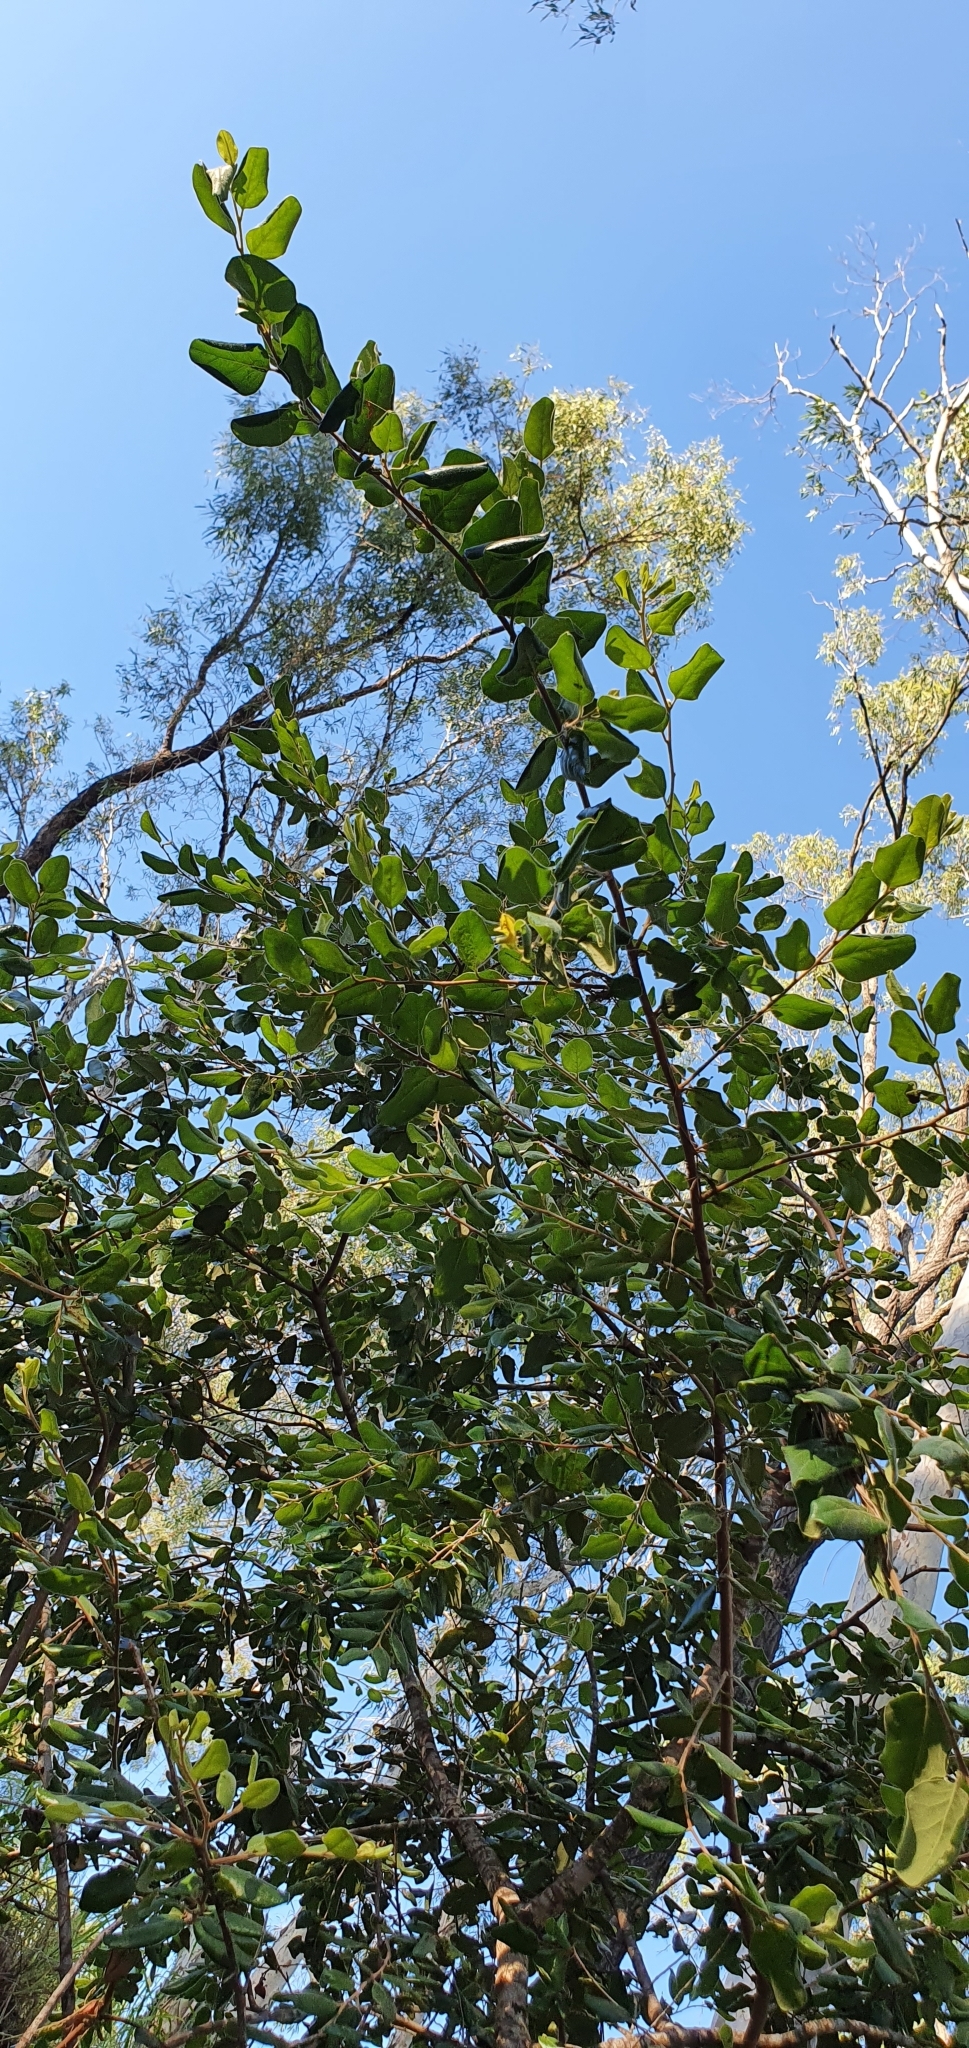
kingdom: Plantae
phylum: Tracheophyta
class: Magnoliopsida
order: Malpighiales
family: Picrodendraceae
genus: Petalostigma
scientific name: Petalostigma pubescens
